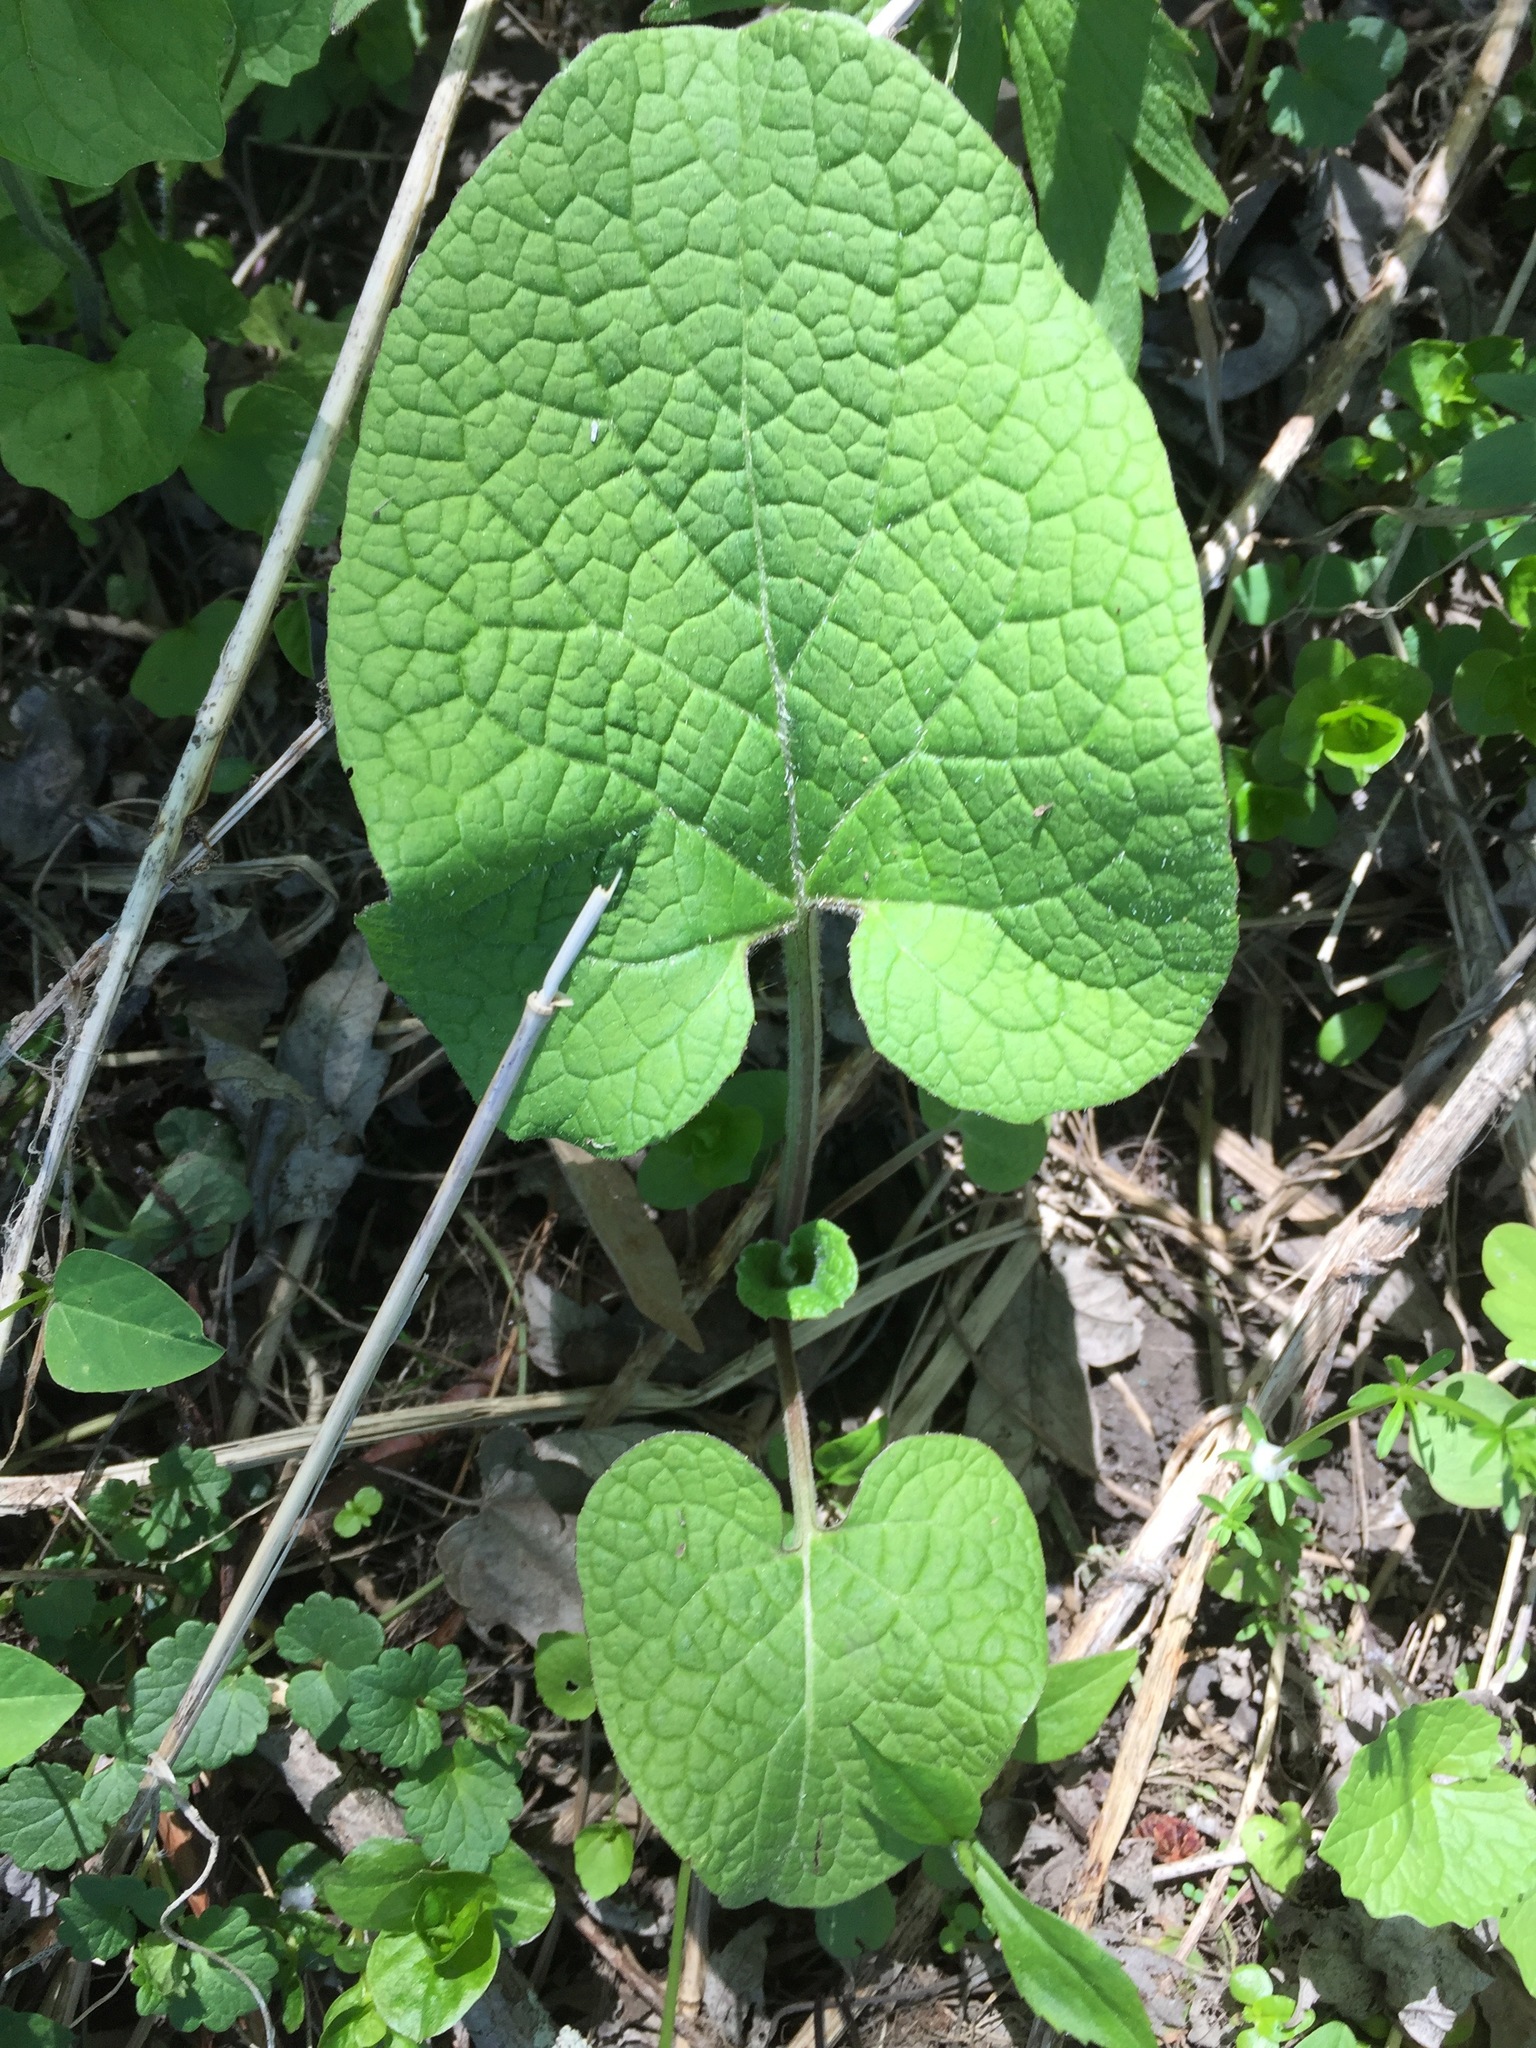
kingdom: Plantae
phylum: Tracheophyta
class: Magnoliopsida
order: Asterales
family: Asteraceae
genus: Arctium
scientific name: Arctium
